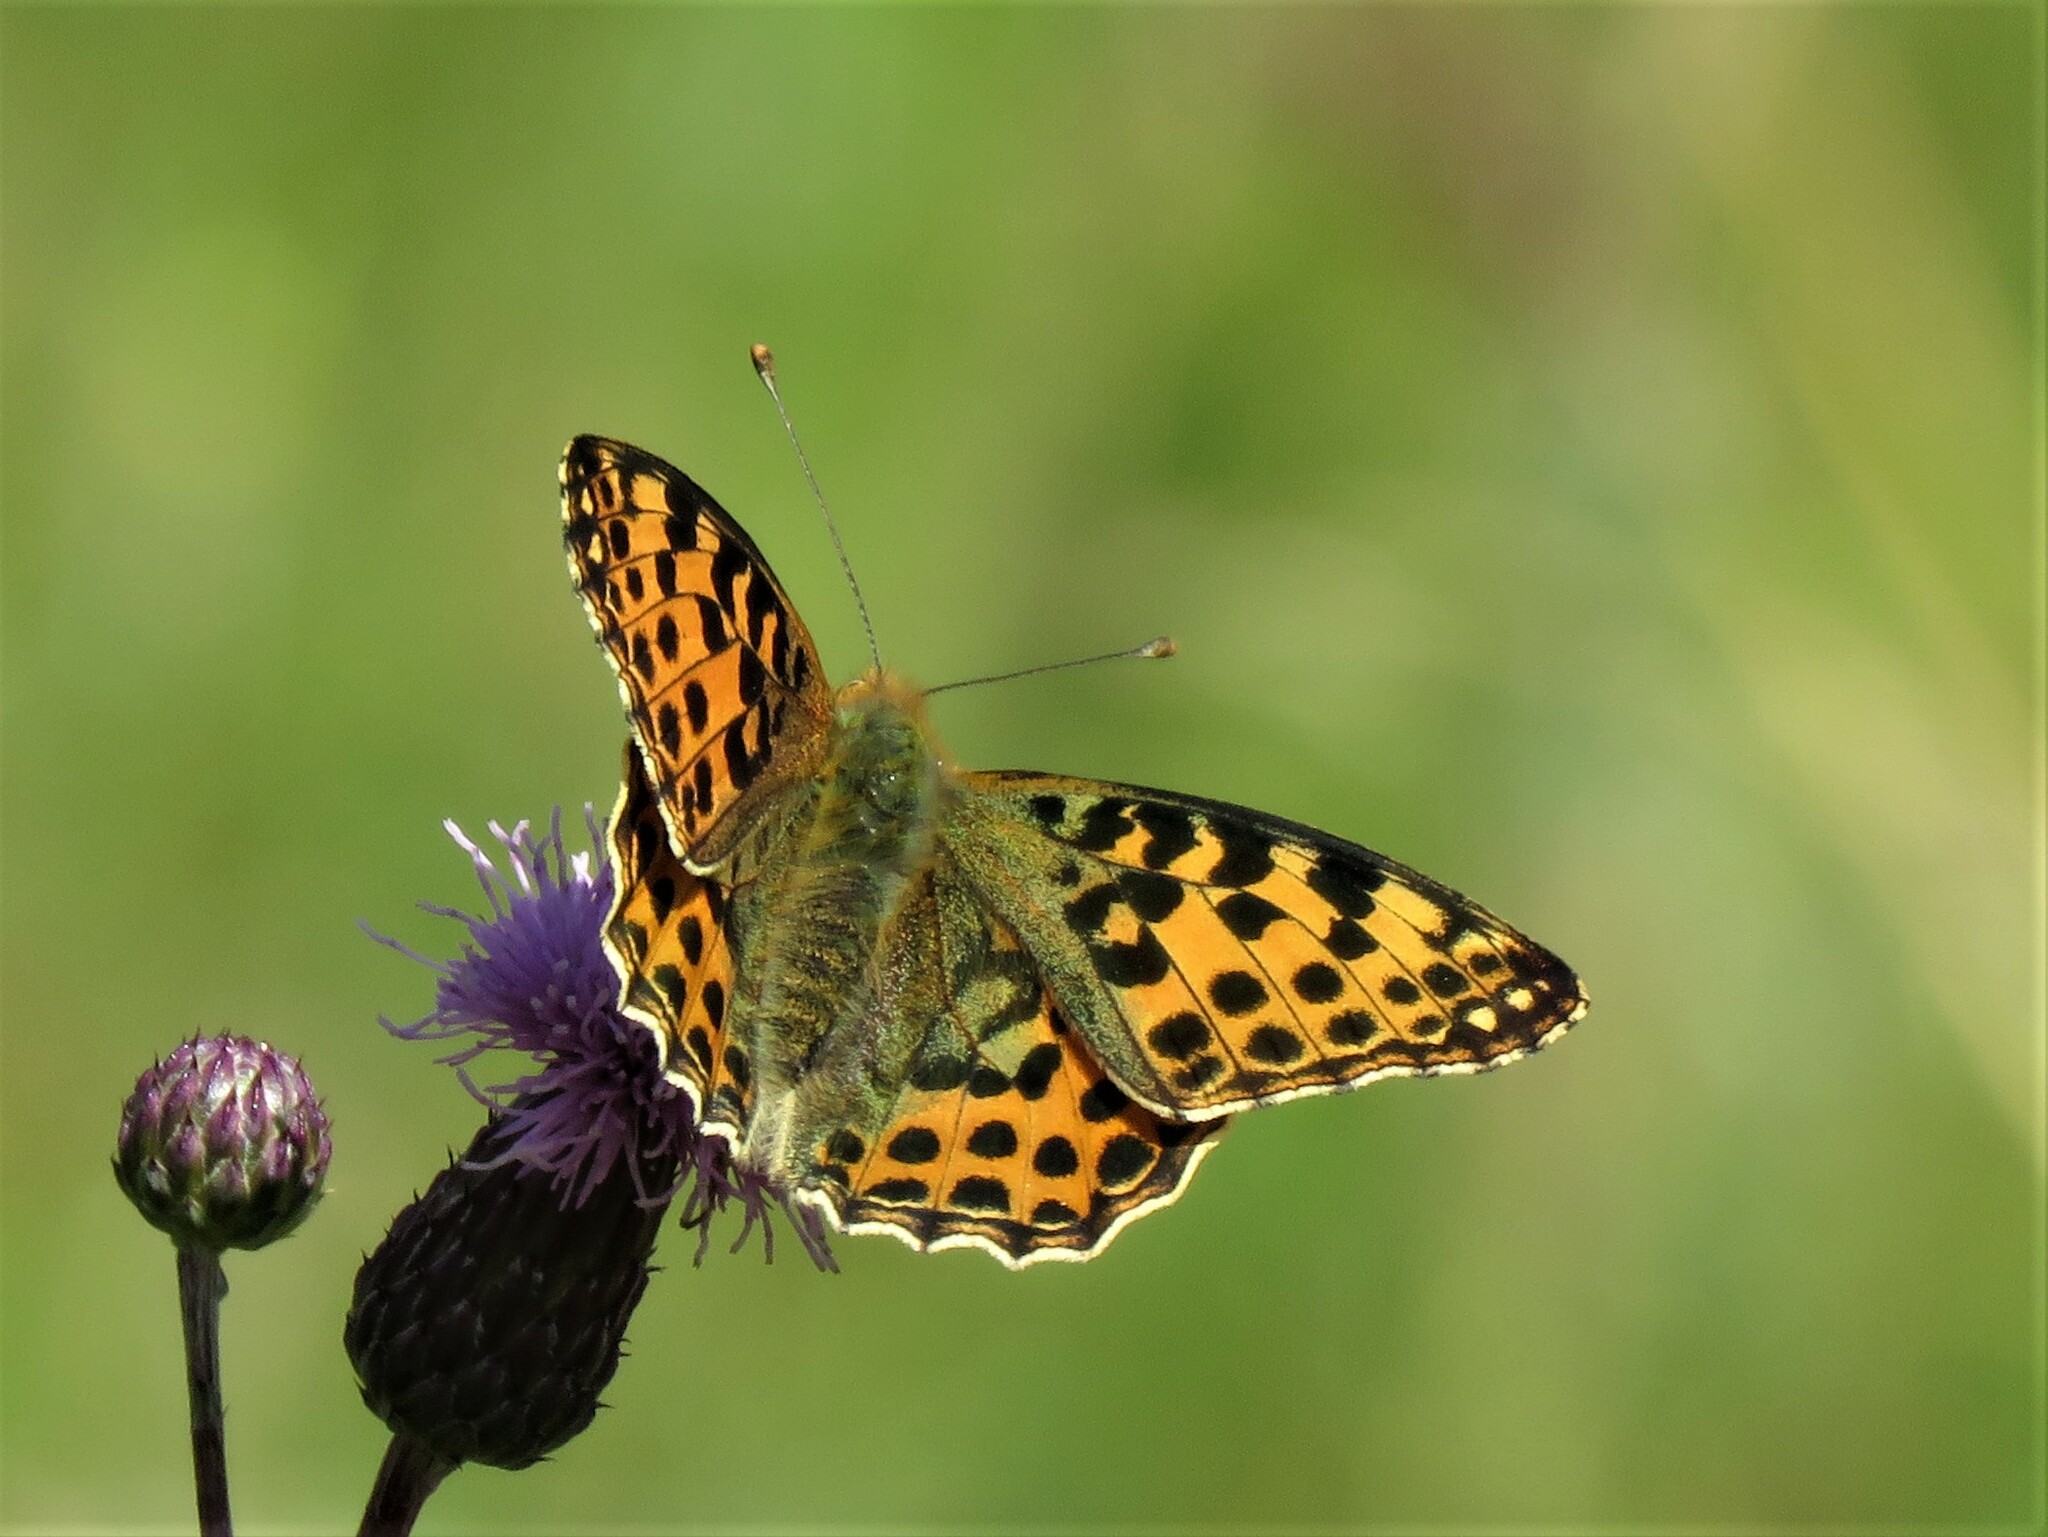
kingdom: Animalia
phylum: Arthropoda
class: Insecta
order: Lepidoptera
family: Nymphalidae
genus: Issoria
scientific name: Issoria lathonia
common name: Queen of spain fritillary
